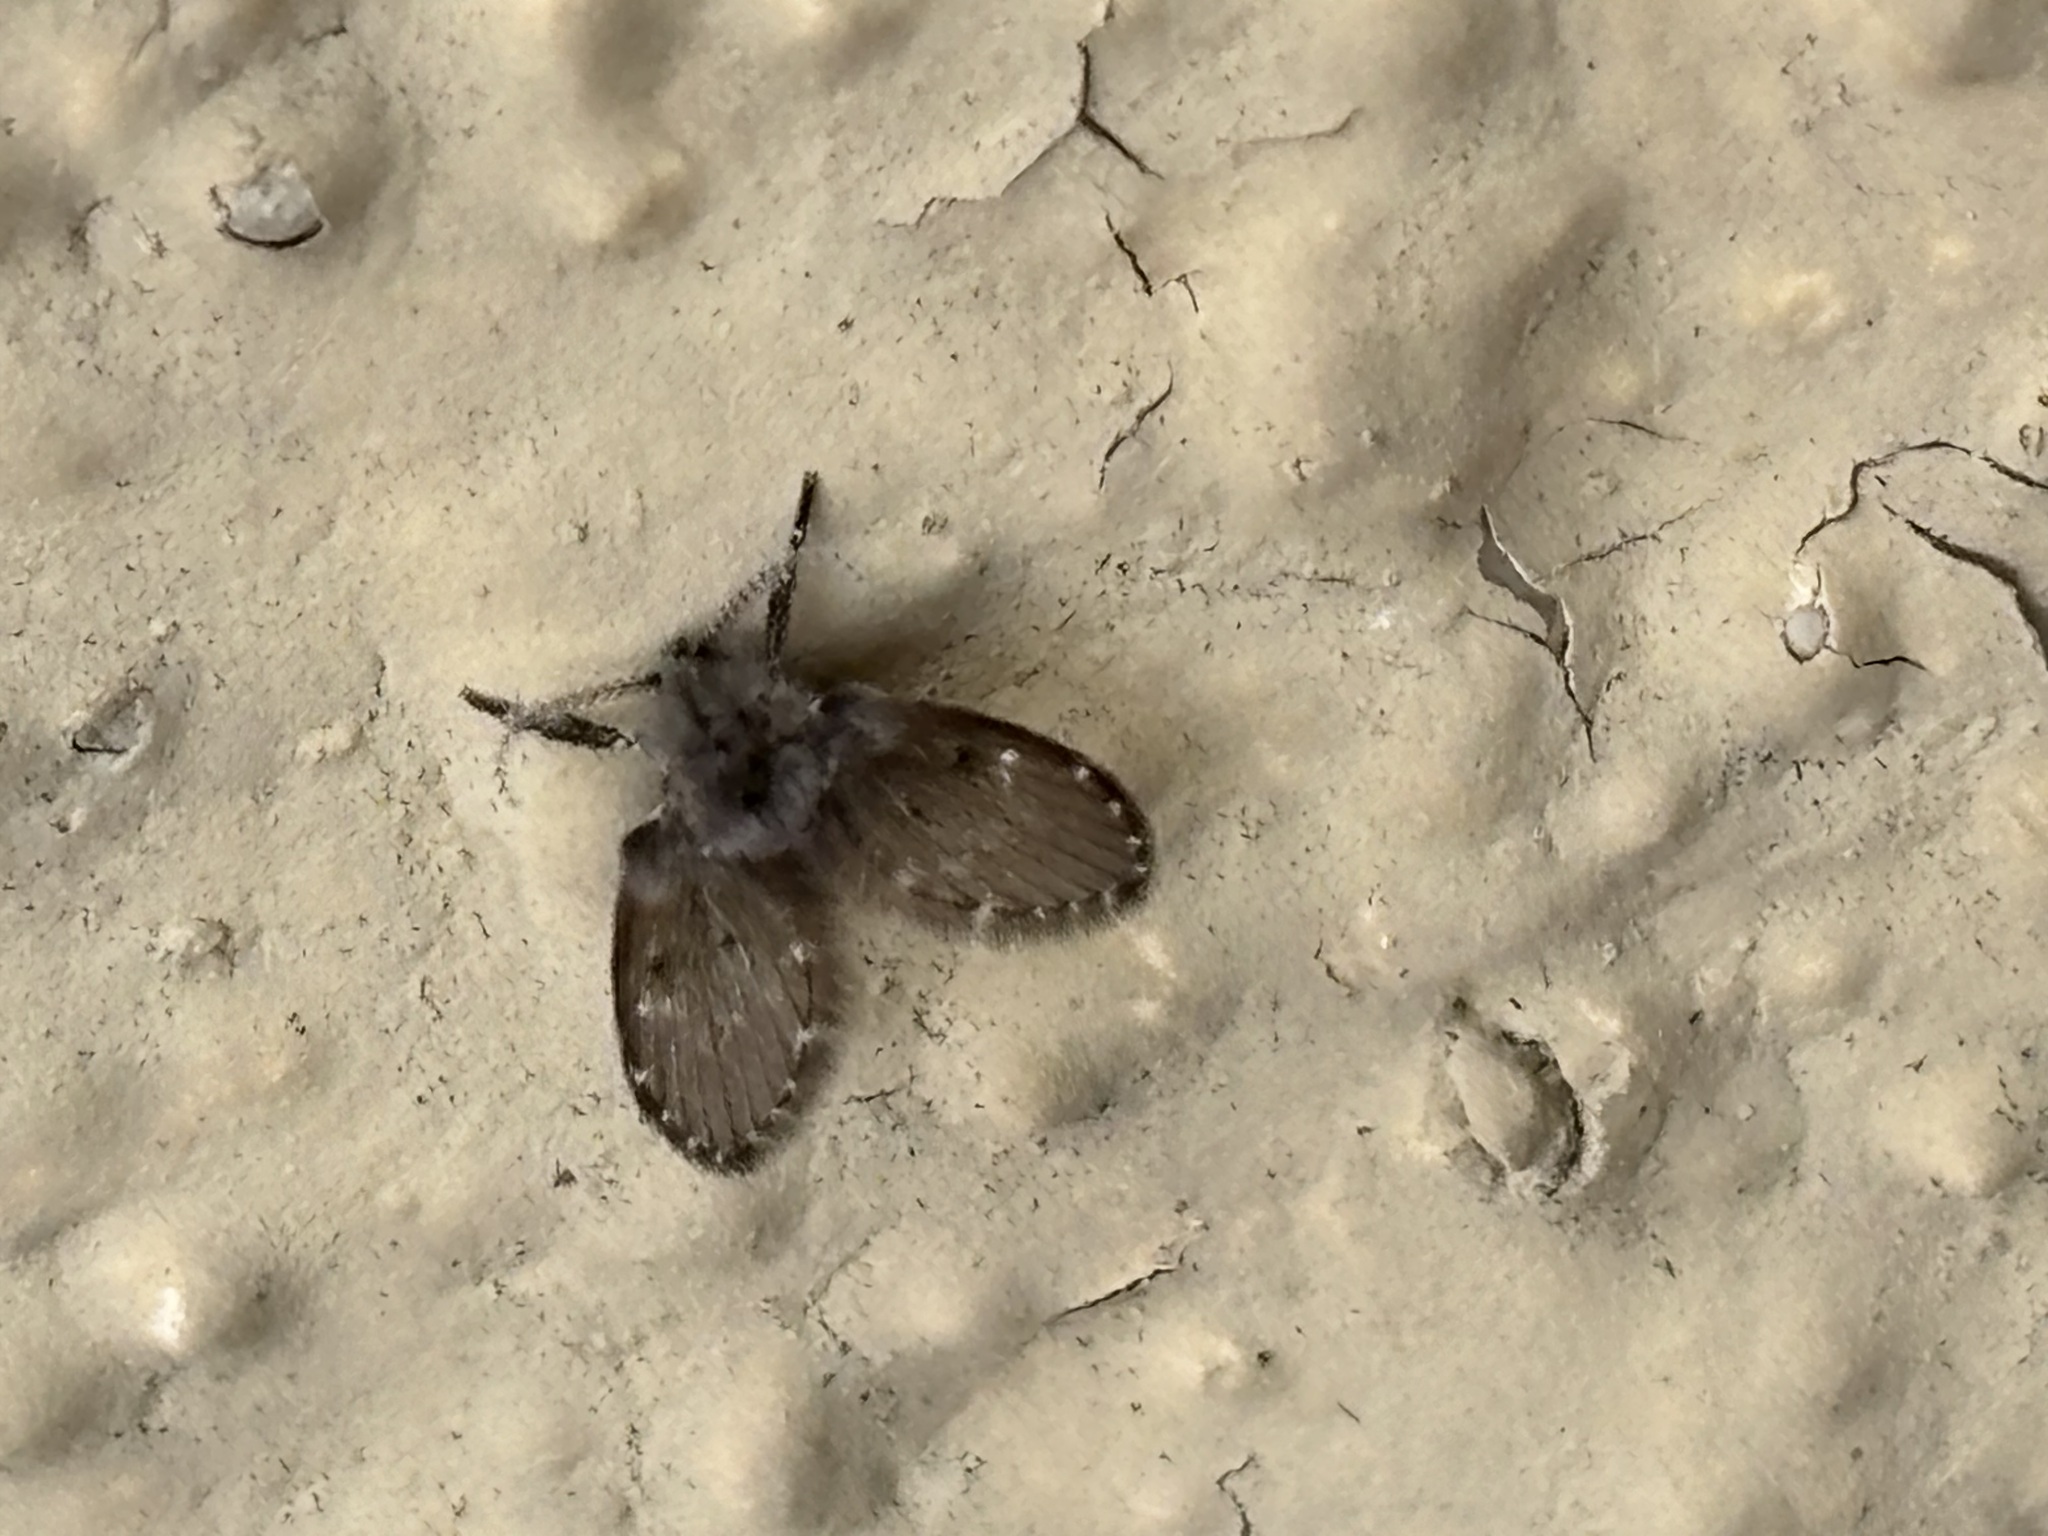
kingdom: Animalia
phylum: Arthropoda
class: Insecta
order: Diptera
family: Psychodidae
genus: Clogmia
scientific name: Clogmia albipunctatus
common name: White-spotted moth fly
